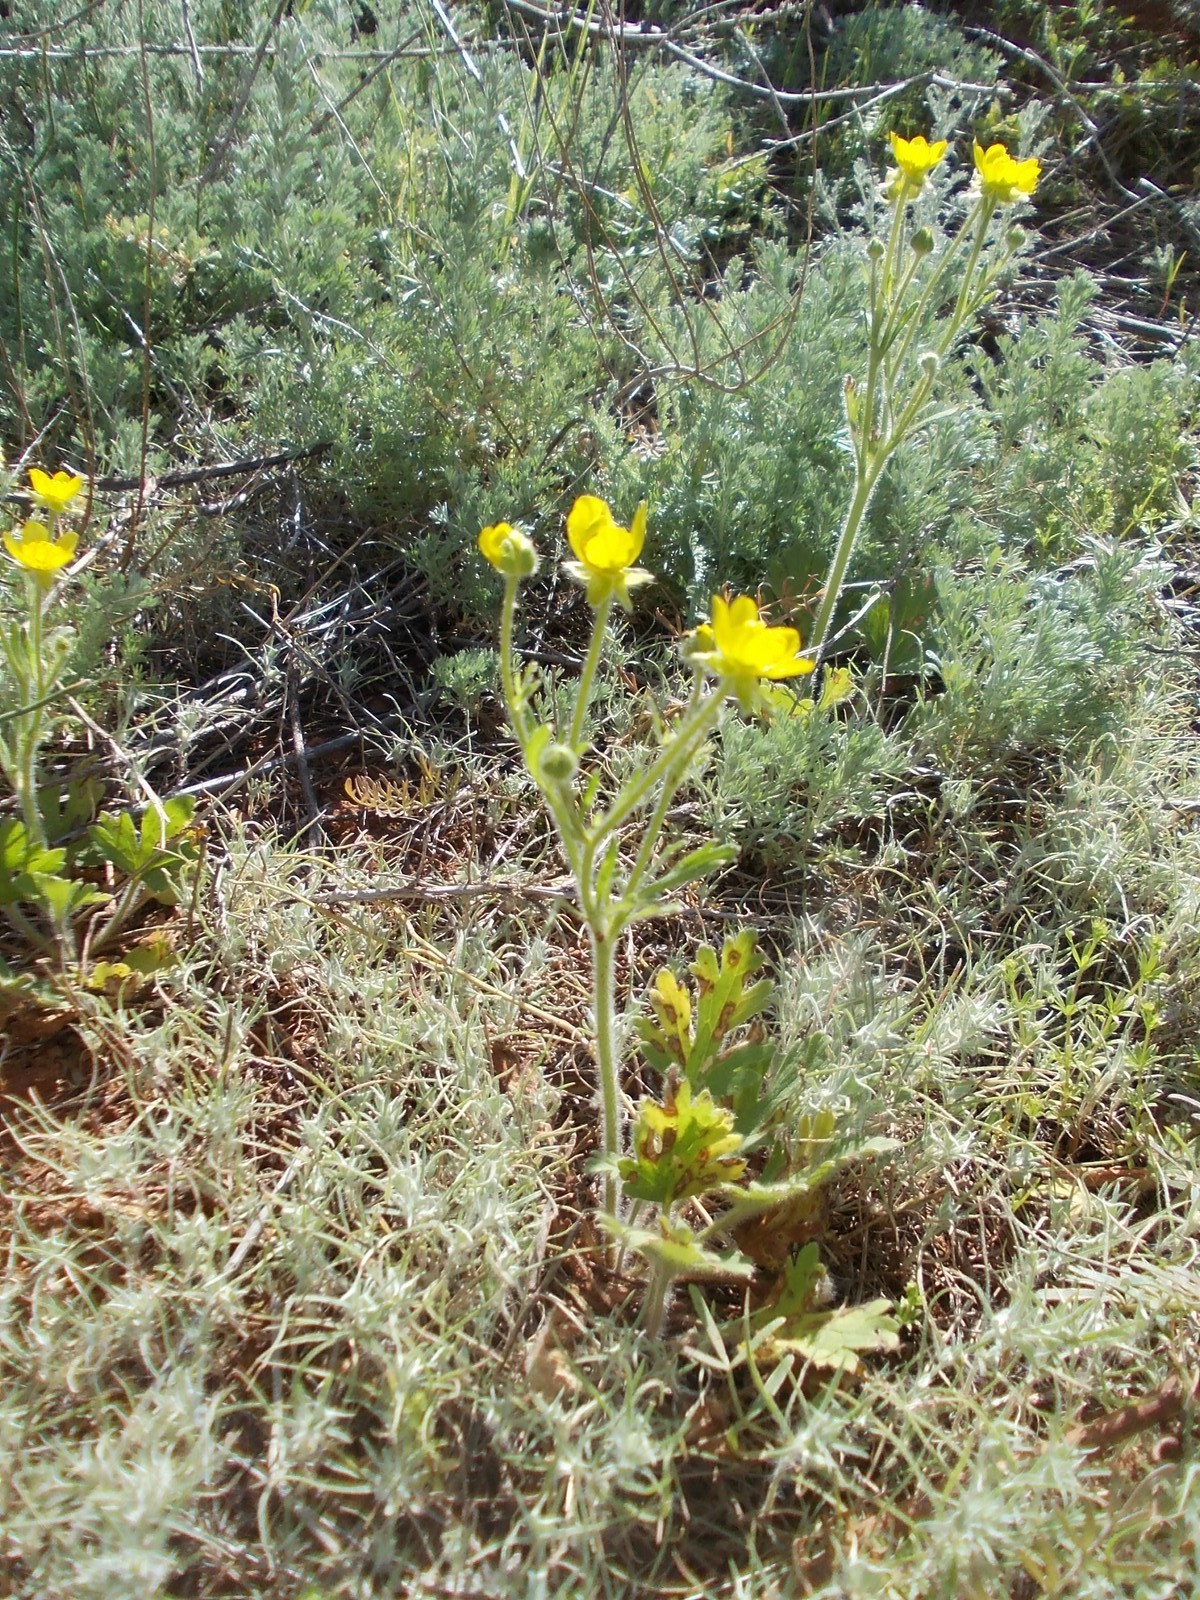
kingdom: Plantae
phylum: Tracheophyta
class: Magnoliopsida
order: Ranunculales
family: Ranunculaceae
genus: Ranunculus
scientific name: Ranunculus oxyspermus
